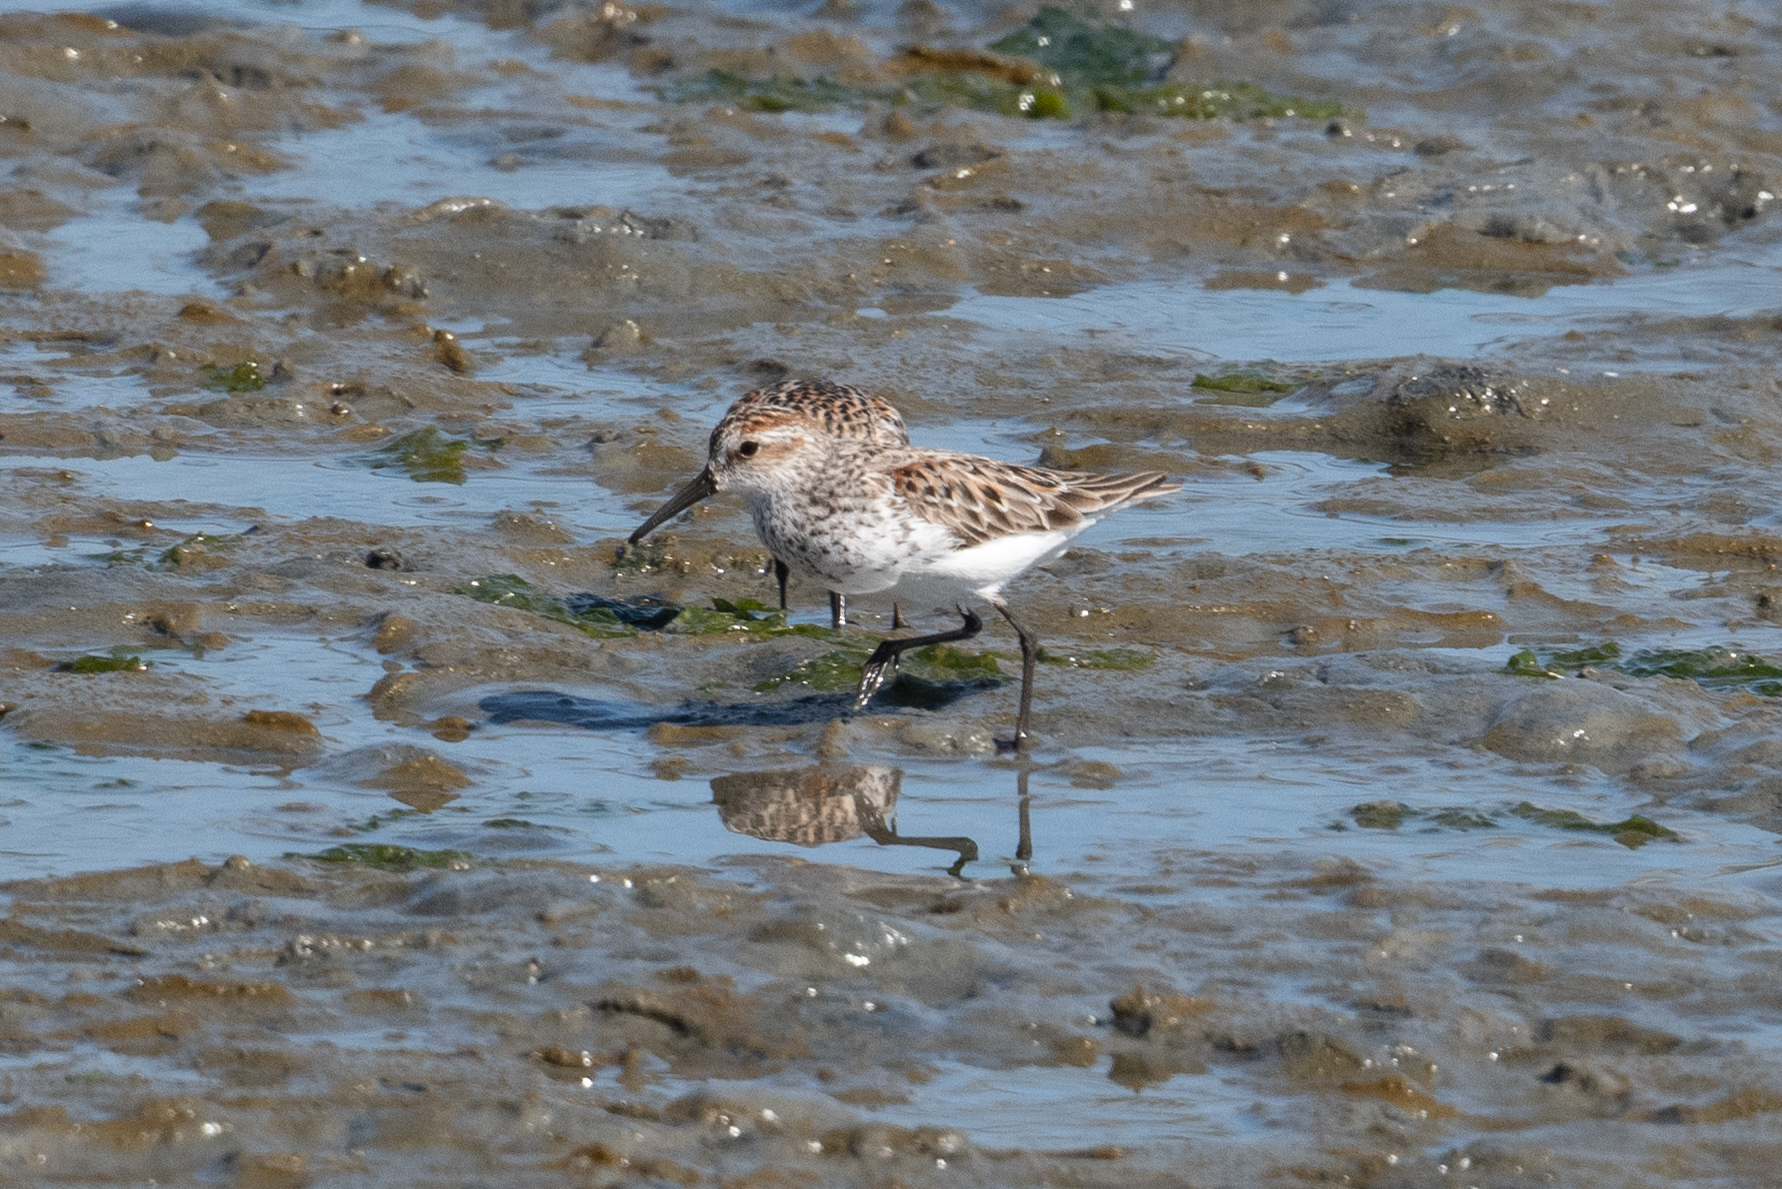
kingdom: Animalia
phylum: Chordata
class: Aves
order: Charadriiformes
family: Scolopacidae
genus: Calidris
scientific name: Calidris mauri
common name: Western sandpiper
